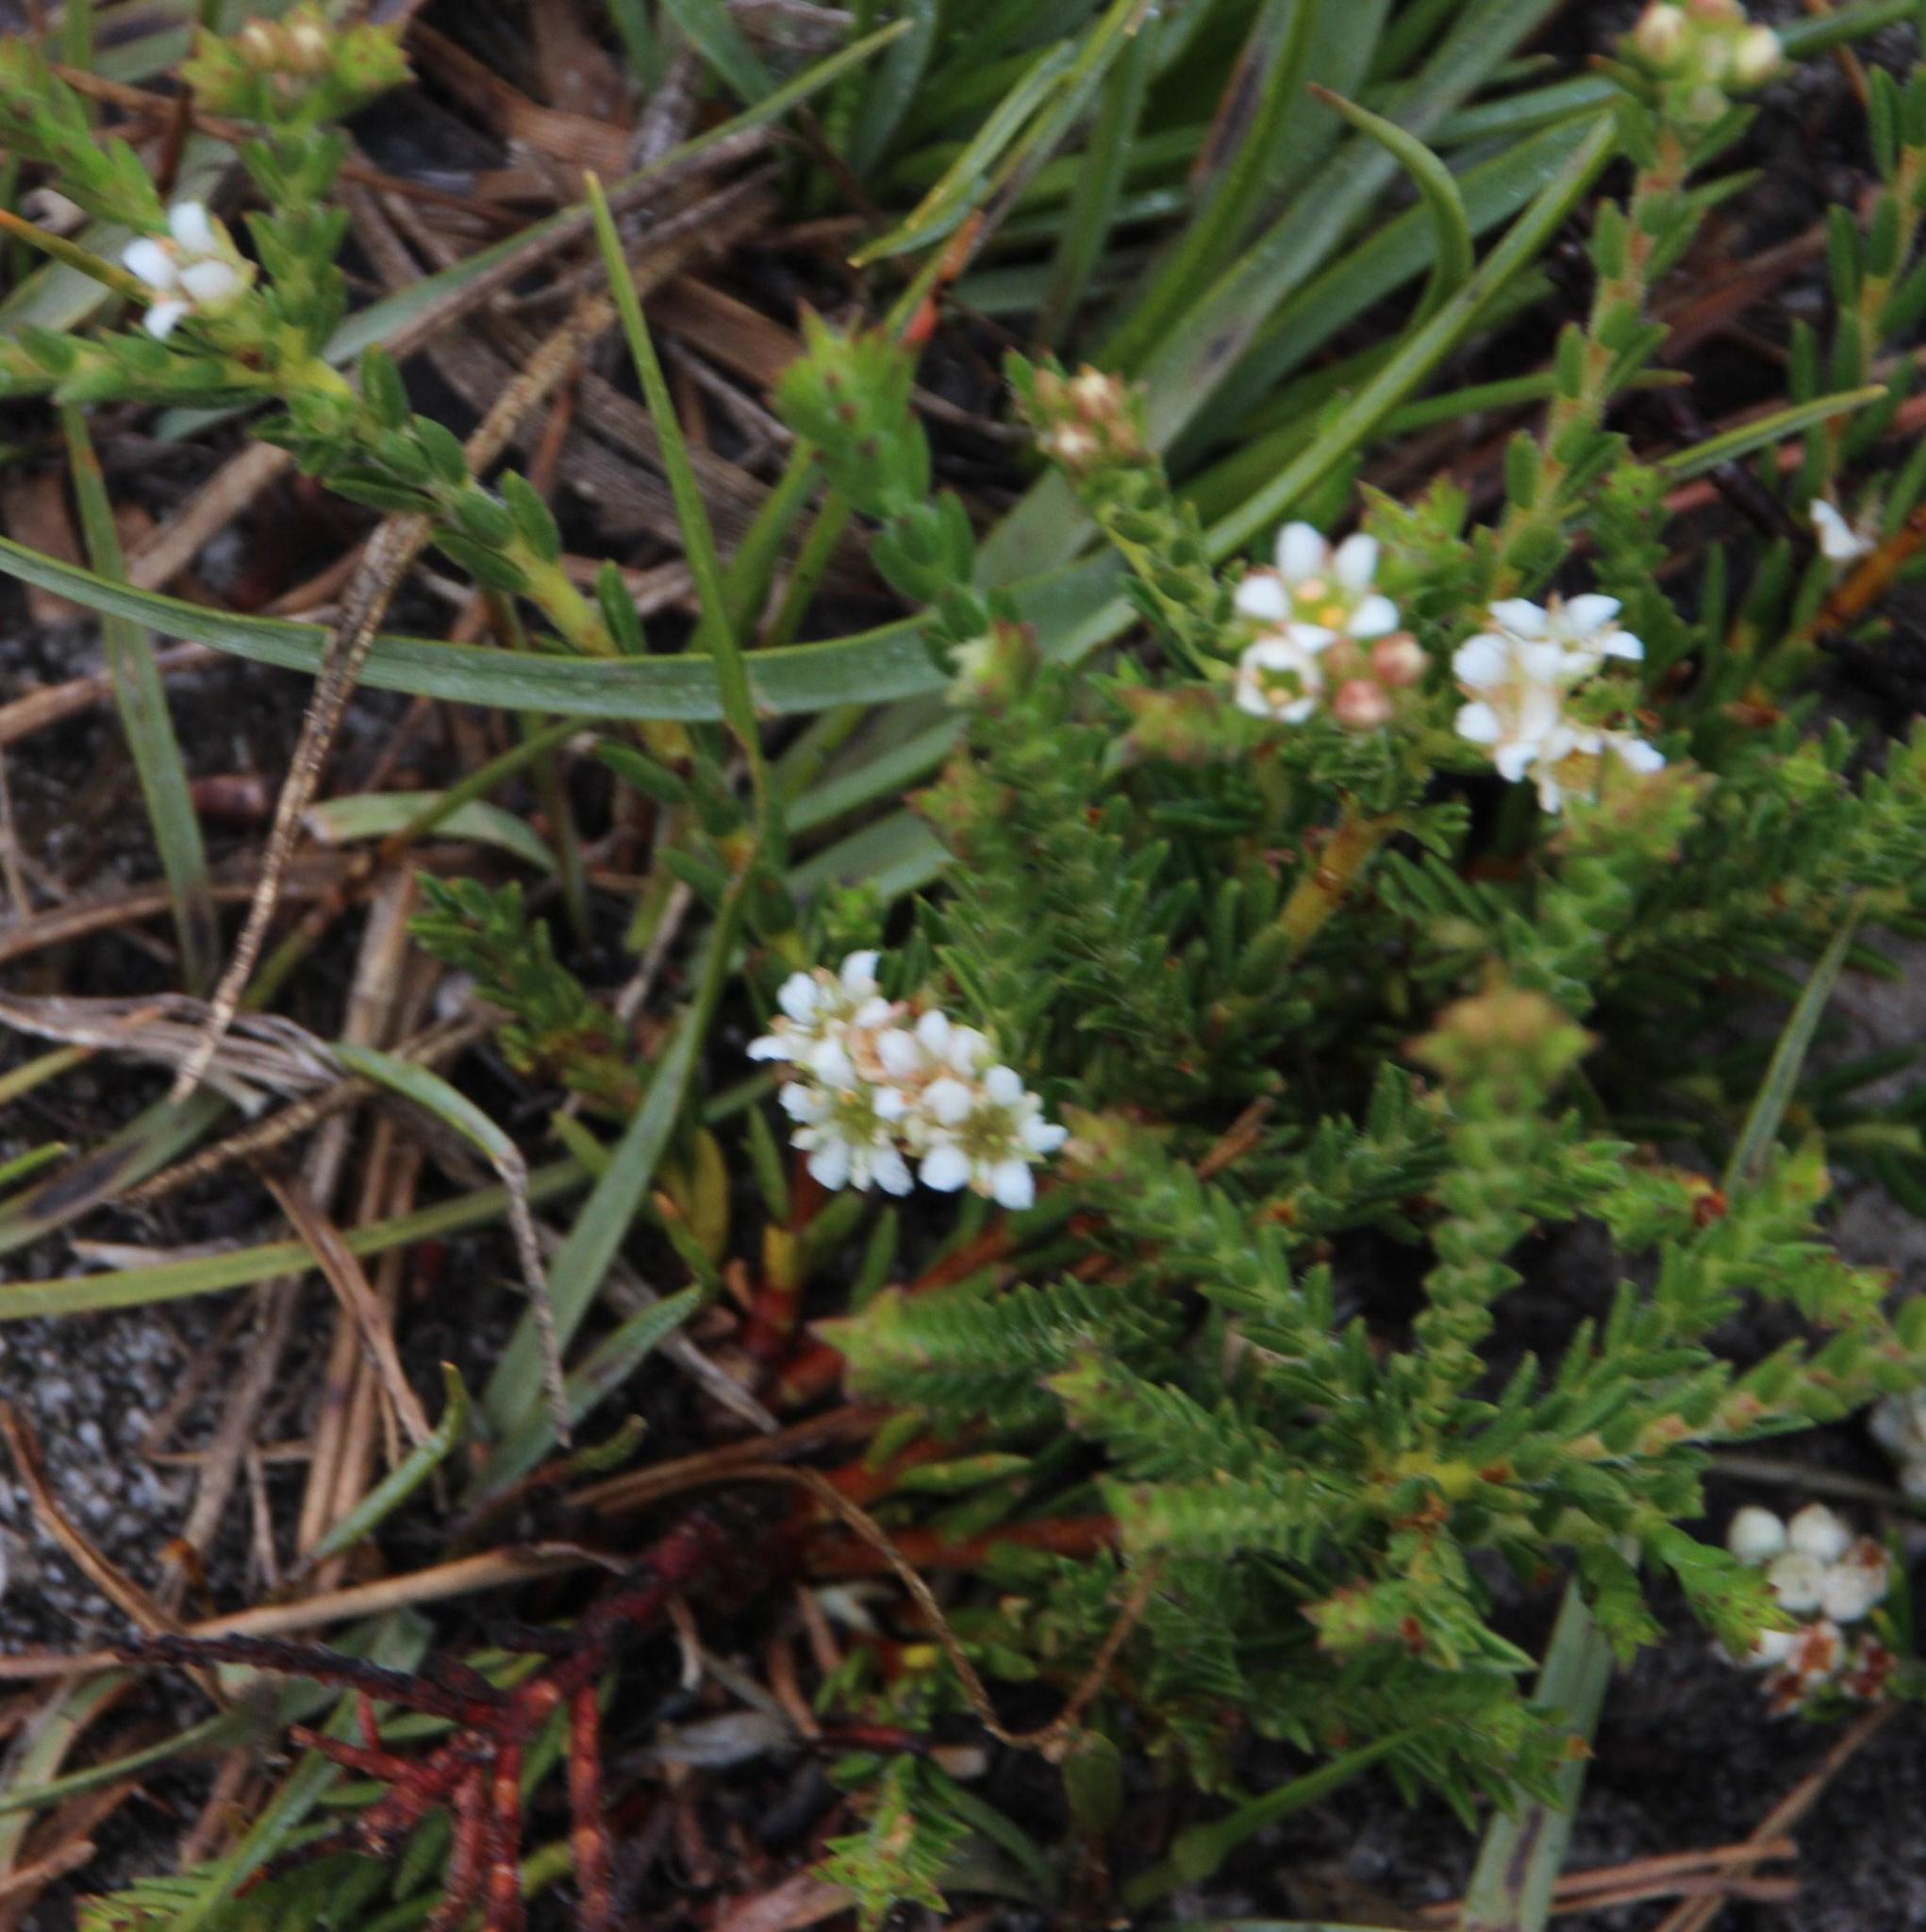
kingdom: Plantae
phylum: Tracheophyta
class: Magnoliopsida
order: Sapindales
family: Rutaceae
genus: Diosma
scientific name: Diosma oppositifolia
